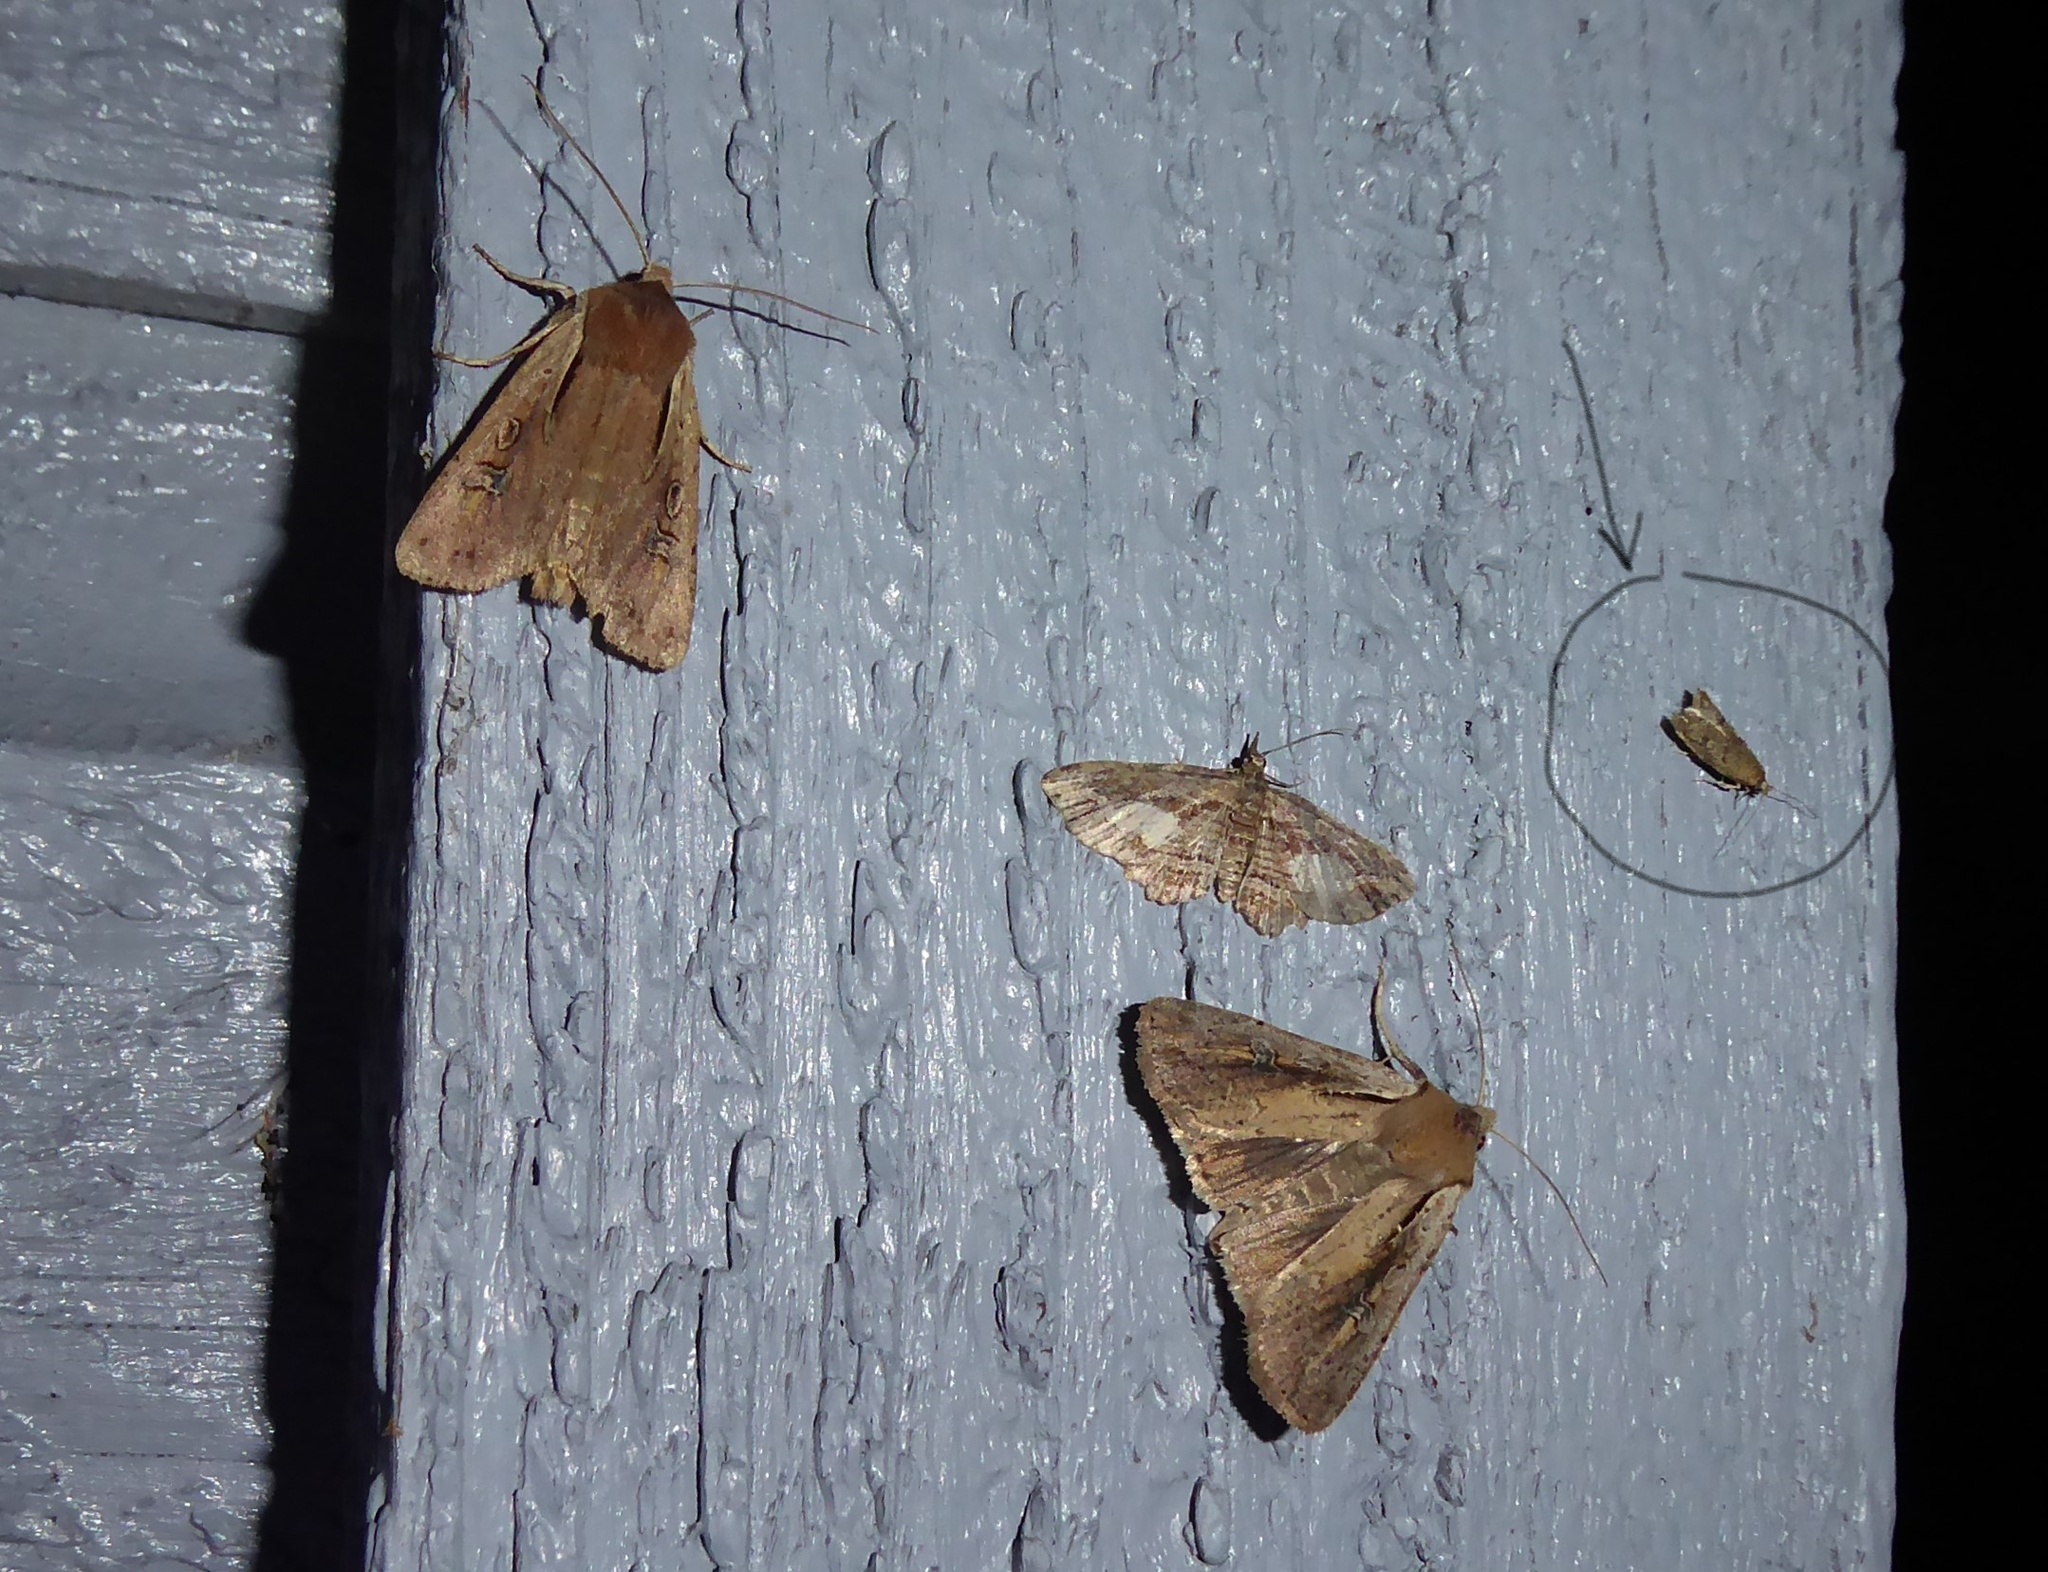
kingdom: Animalia
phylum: Arthropoda
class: Insecta
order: Lepidoptera
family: Oecophoridae
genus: Gymnobathra
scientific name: Gymnobathra tholodella
